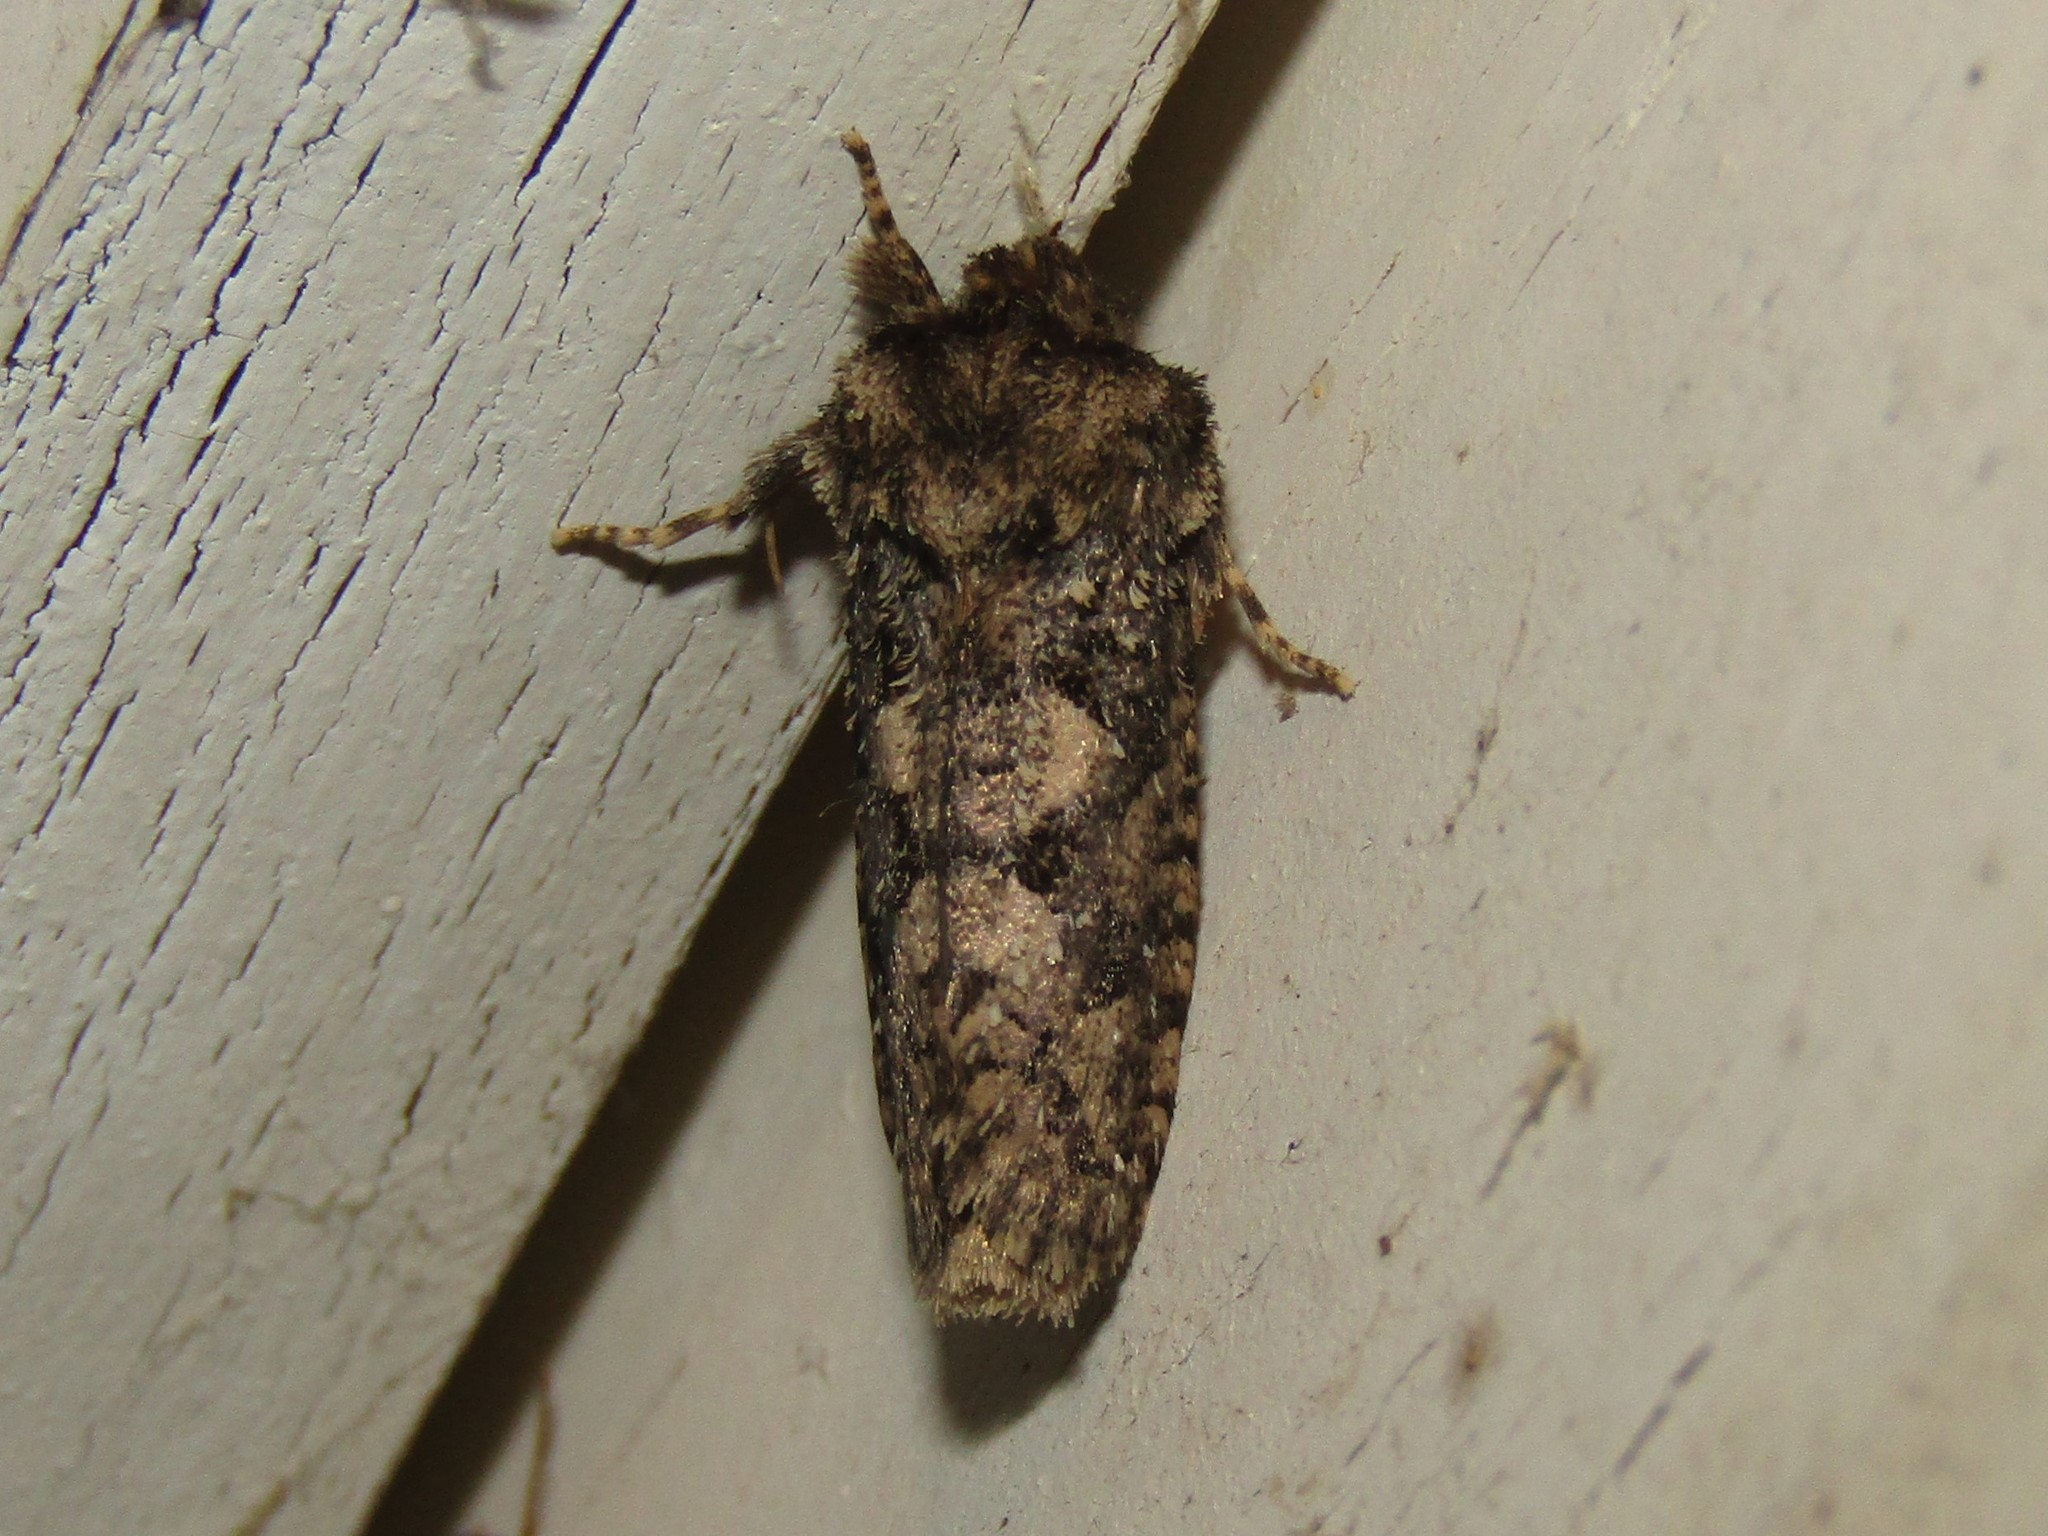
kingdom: Animalia
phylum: Arthropoda
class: Insecta
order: Lepidoptera
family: Tineidae
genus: Acrolophus
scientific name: Acrolophus arcanella
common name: Arcane grass tubeworm moth
